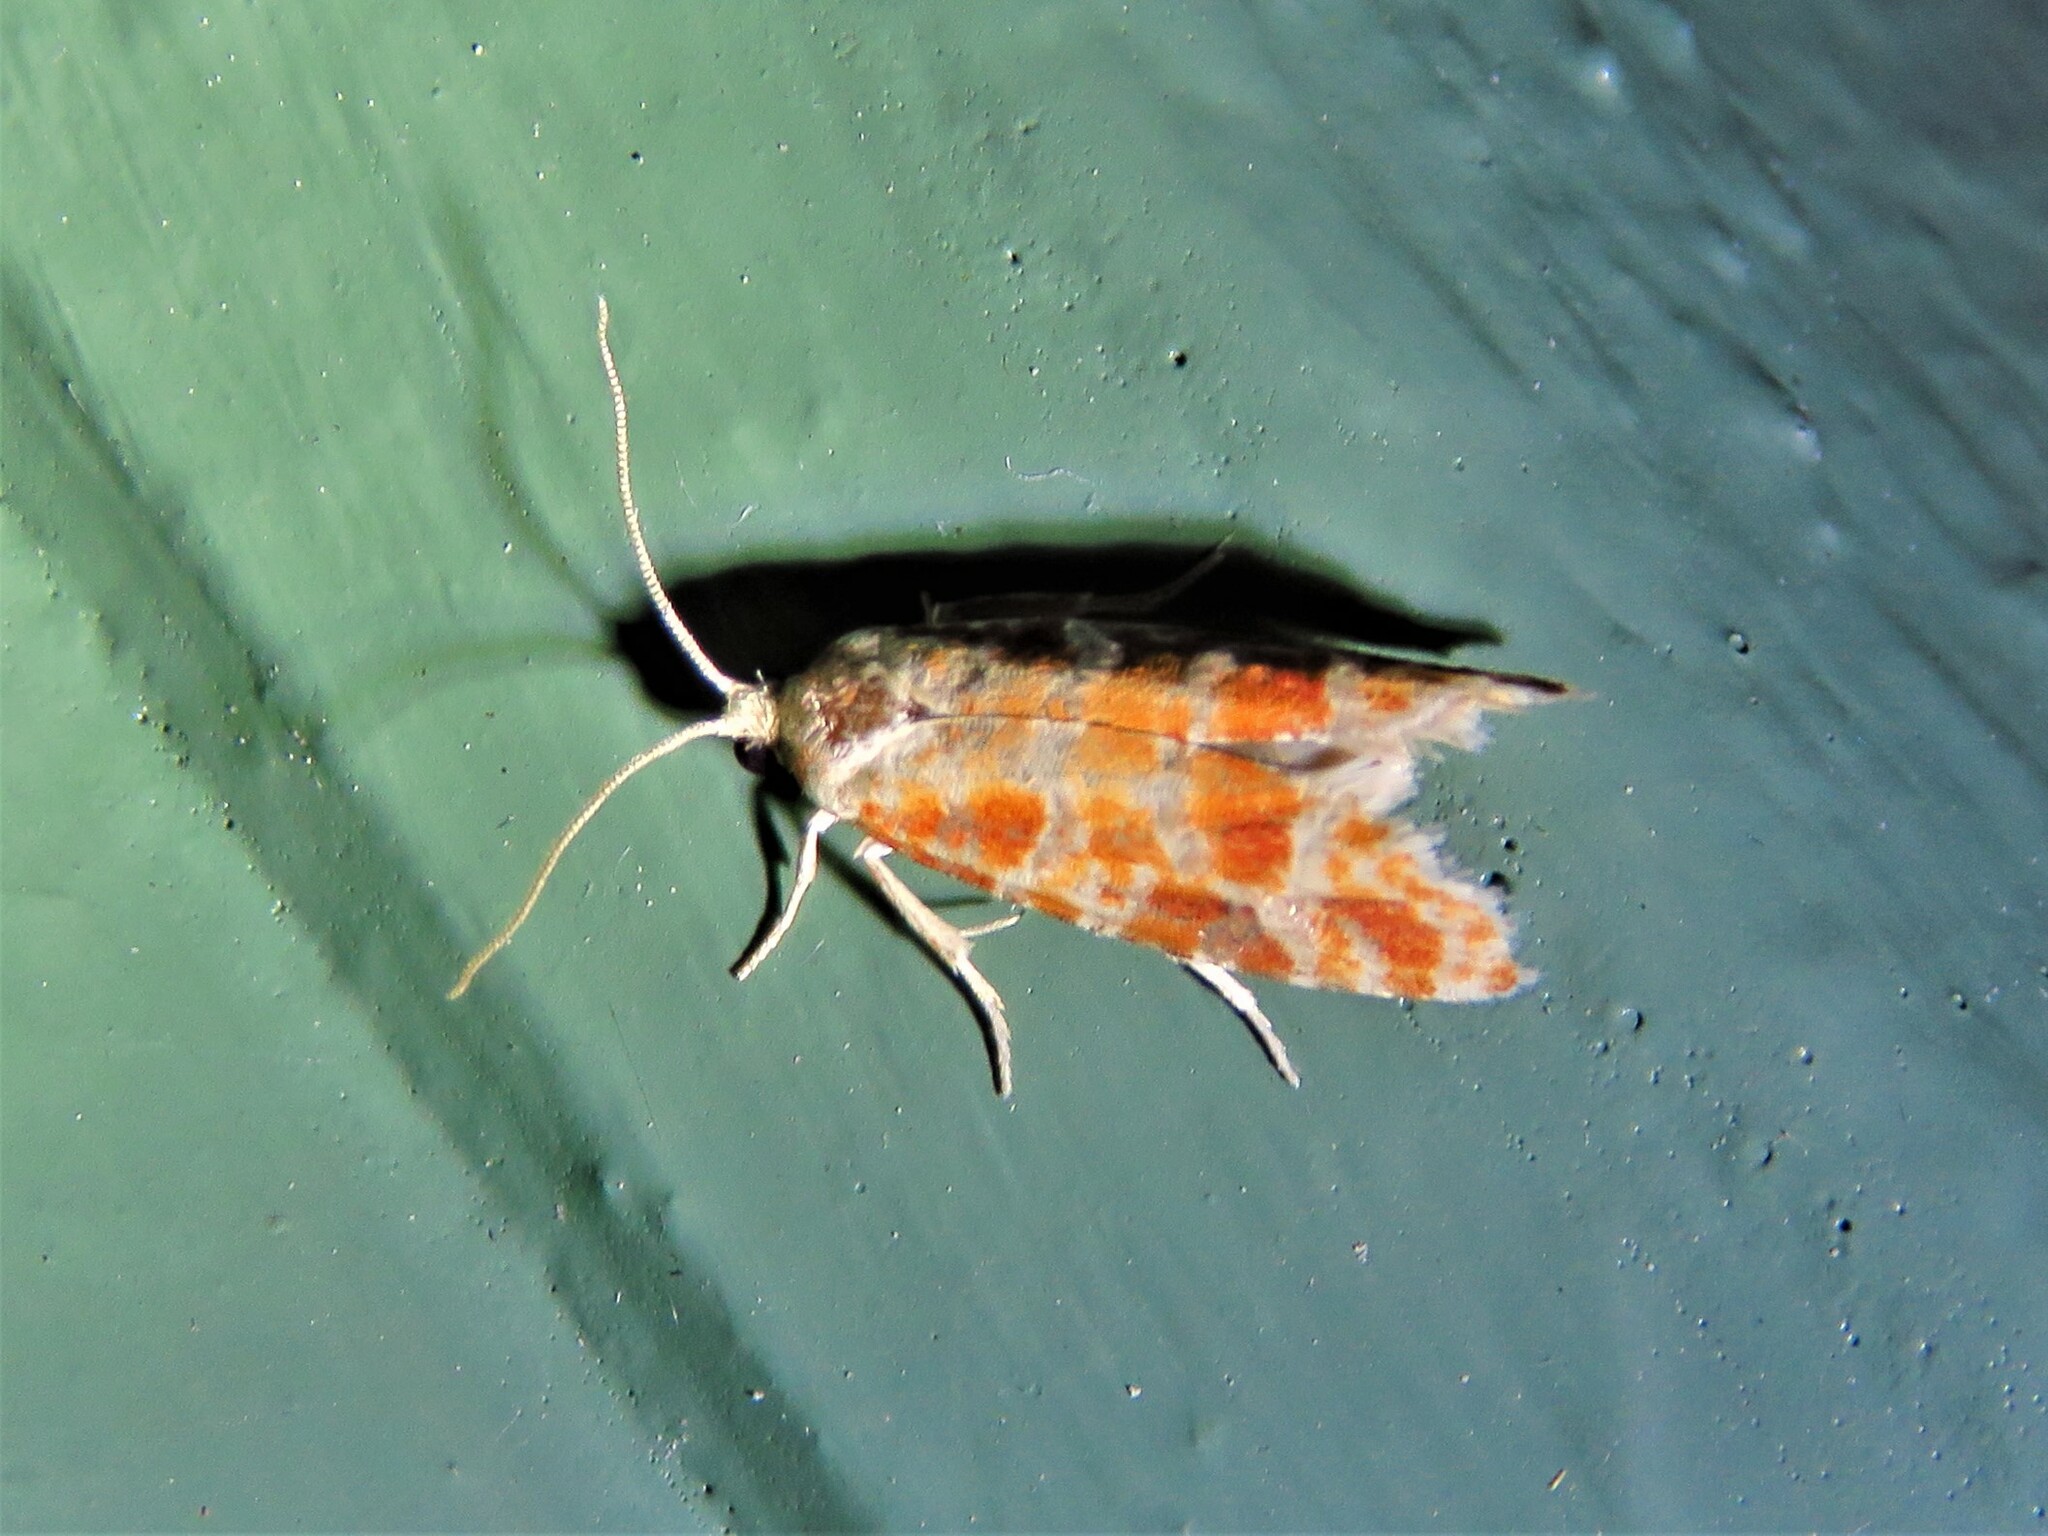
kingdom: Animalia
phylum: Arthropoda
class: Insecta
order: Lepidoptera
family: Tortricidae
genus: Rhyacionia
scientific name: Rhyacionia buoliana
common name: European pine shoot moth
